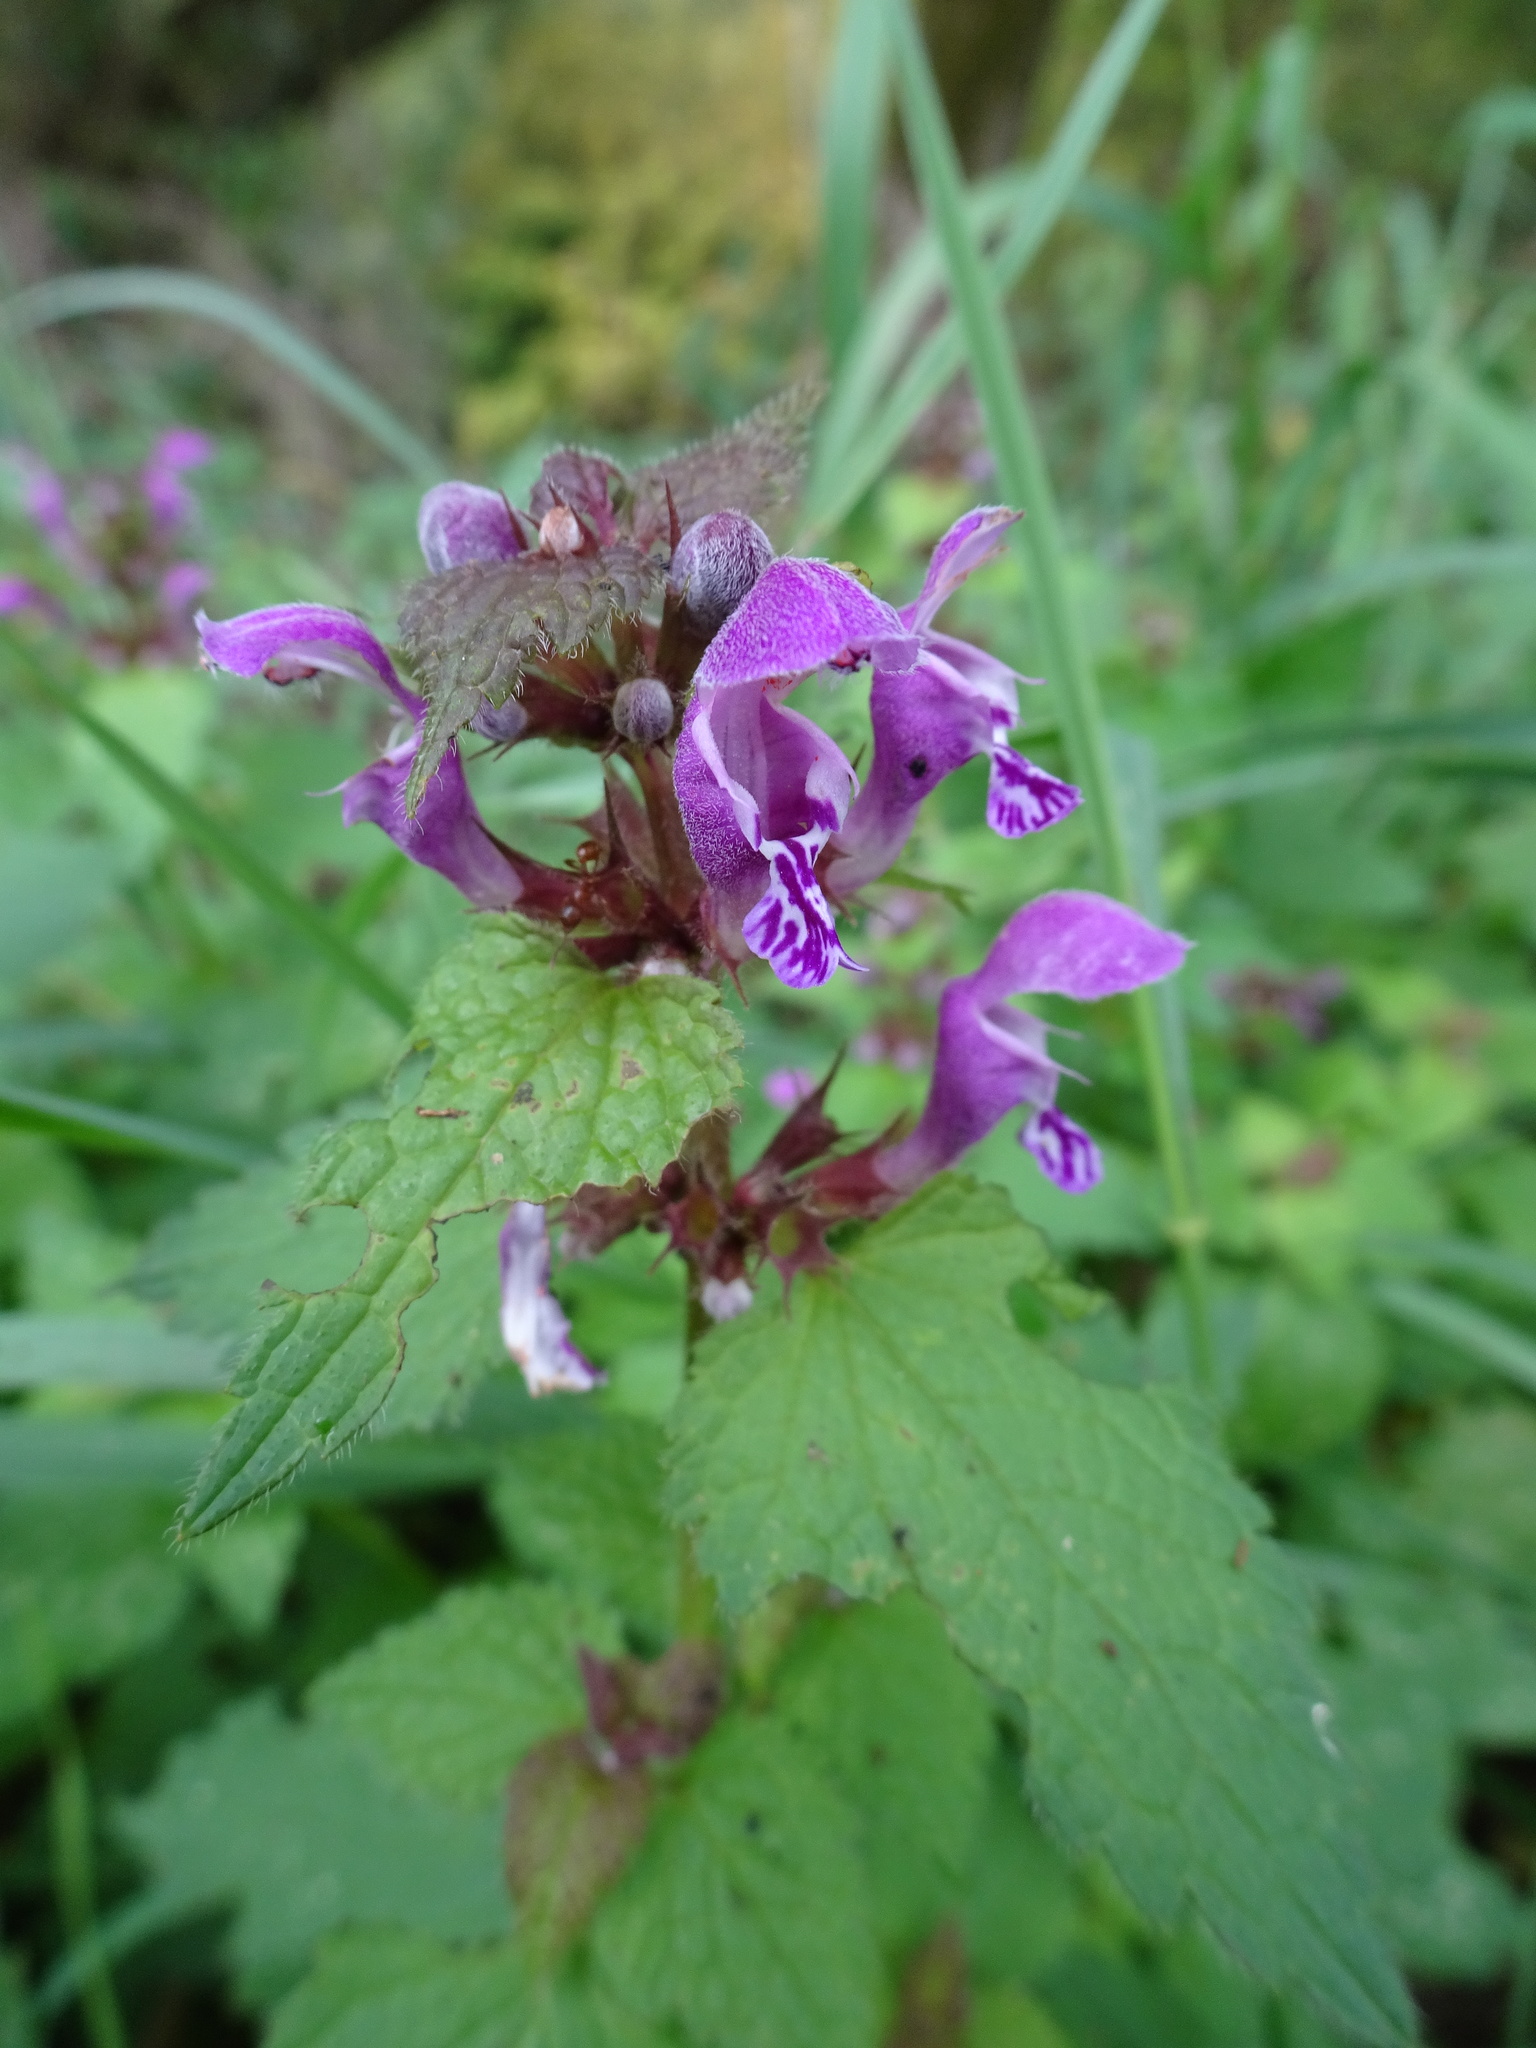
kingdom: Plantae
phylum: Tracheophyta
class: Magnoliopsida
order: Lamiales
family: Lamiaceae
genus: Lamium
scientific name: Lamium maculatum
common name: Spotted dead-nettle
